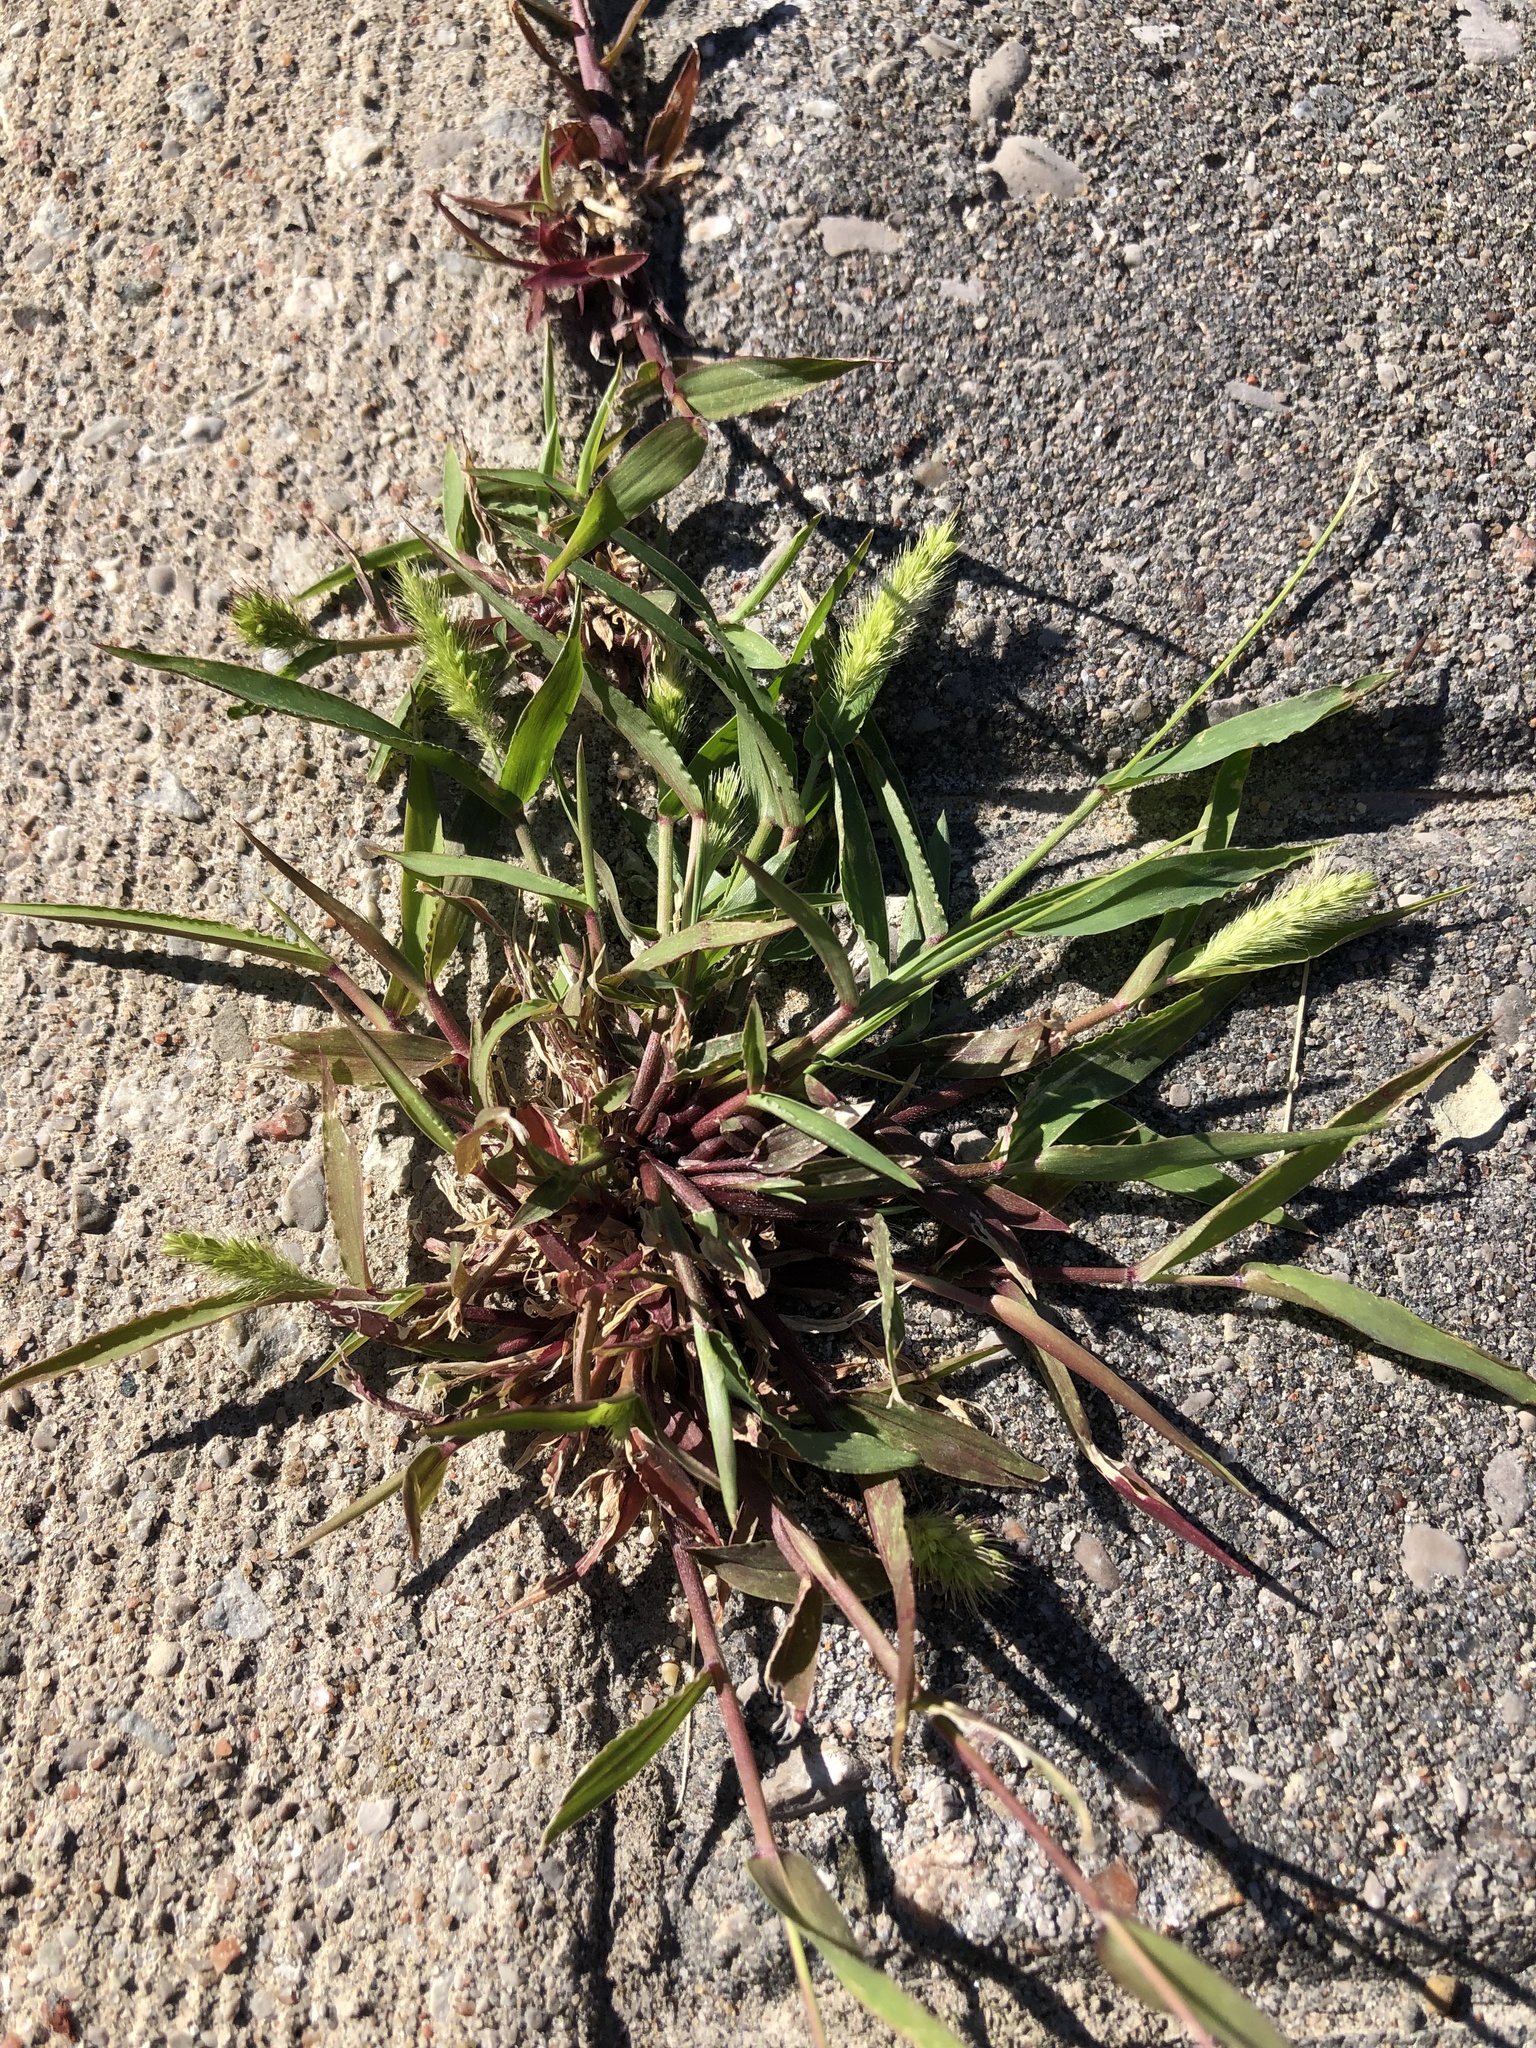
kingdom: Plantae
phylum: Tracheophyta
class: Liliopsida
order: Poales
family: Poaceae
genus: Setaria
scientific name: Setaria viridis
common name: Green bristlegrass
